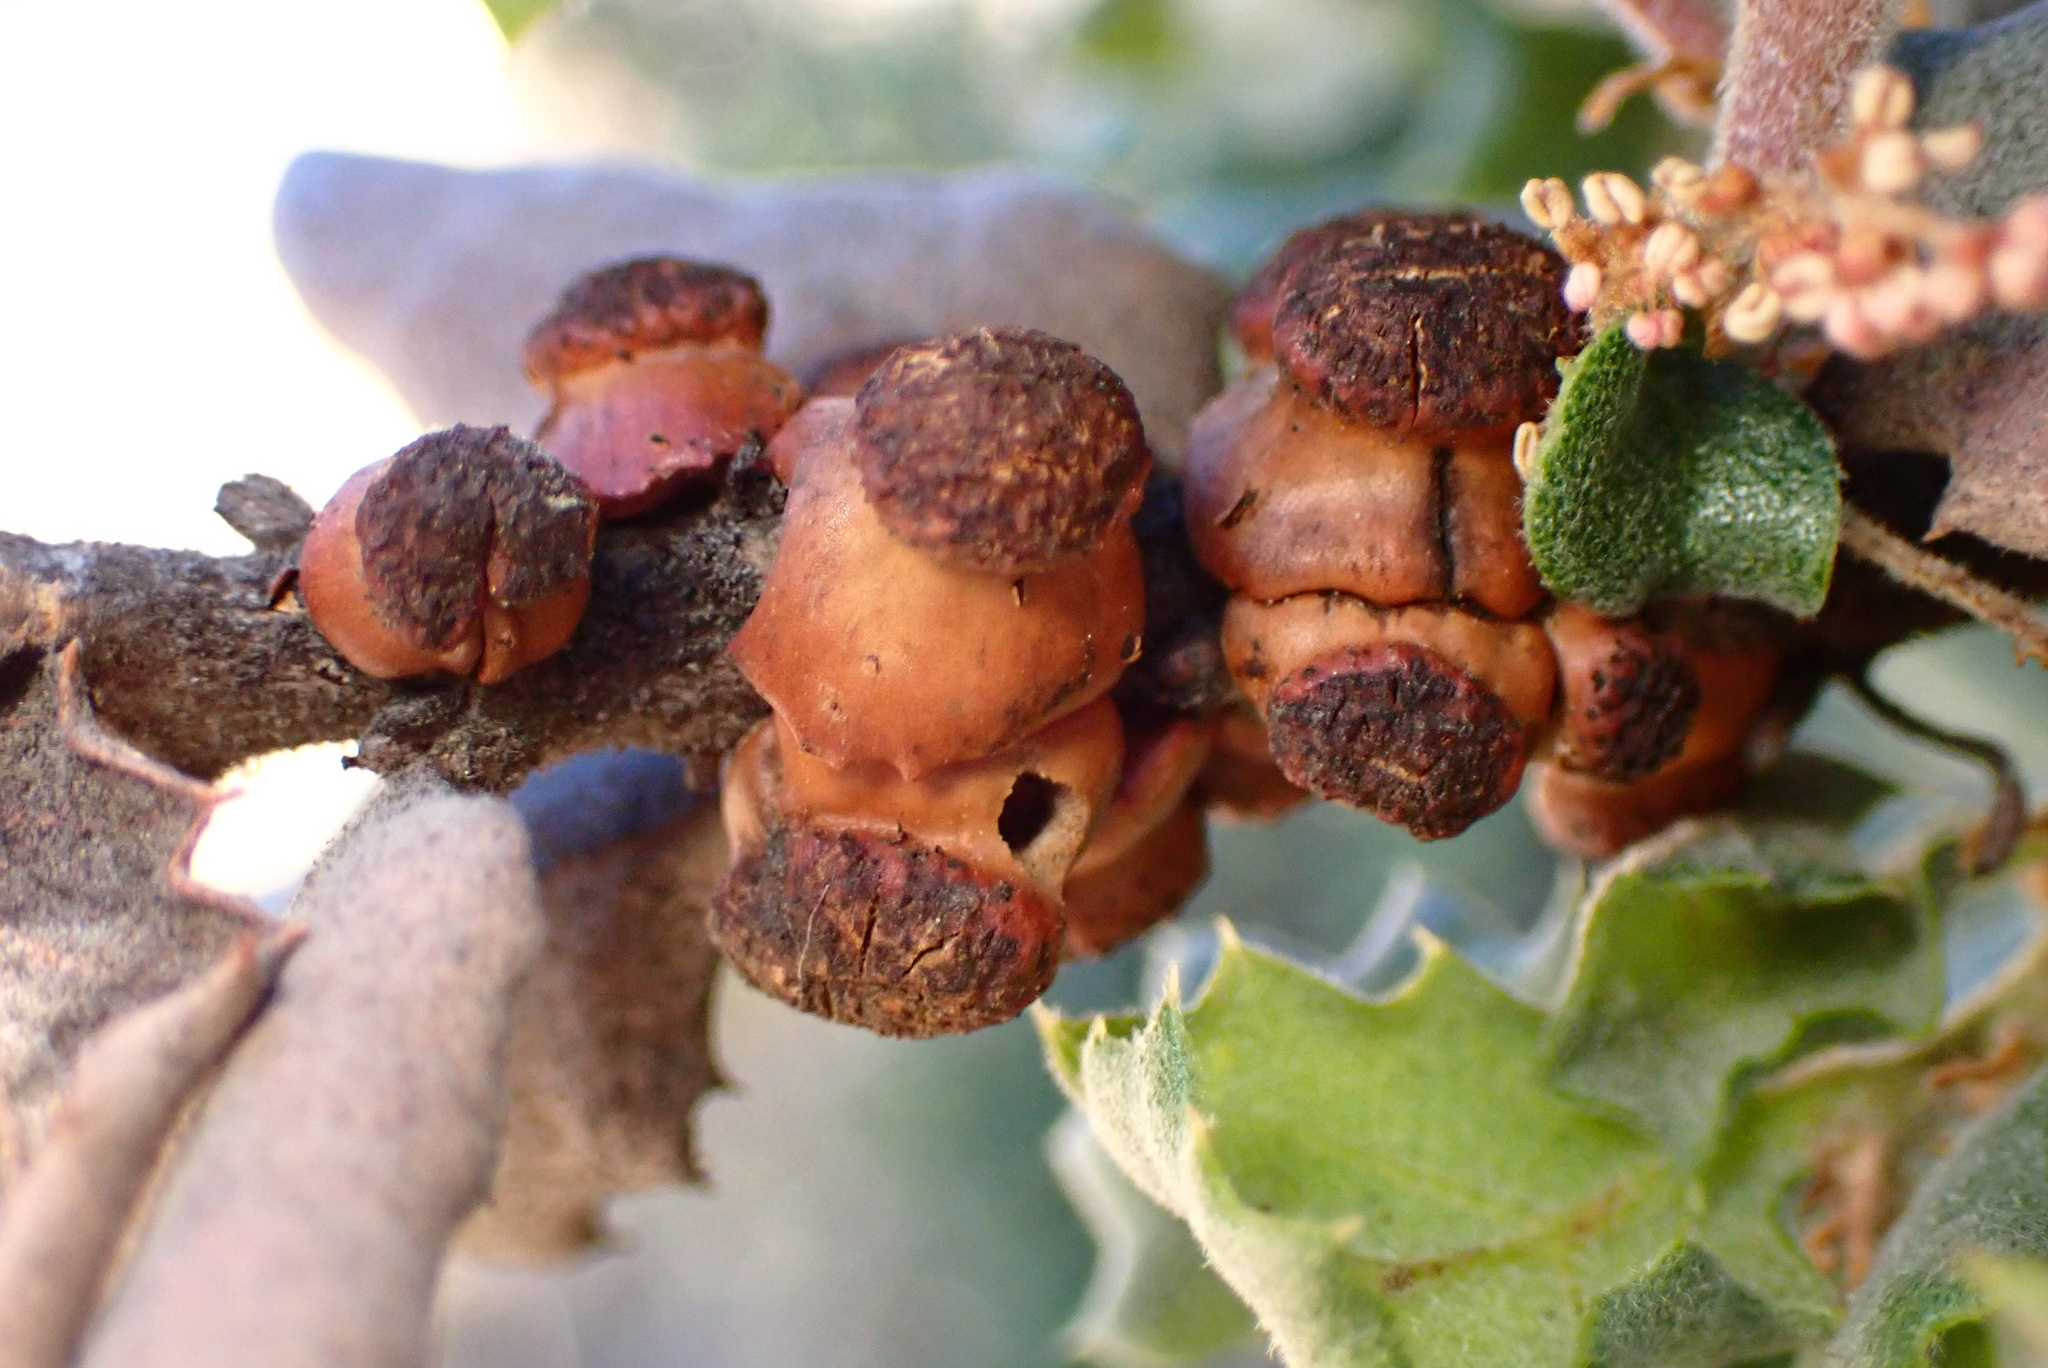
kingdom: Animalia
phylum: Arthropoda
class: Insecta
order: Hymenoptera
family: Cynipidae
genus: Disholcaspis
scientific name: Disholcaspis prehensa
